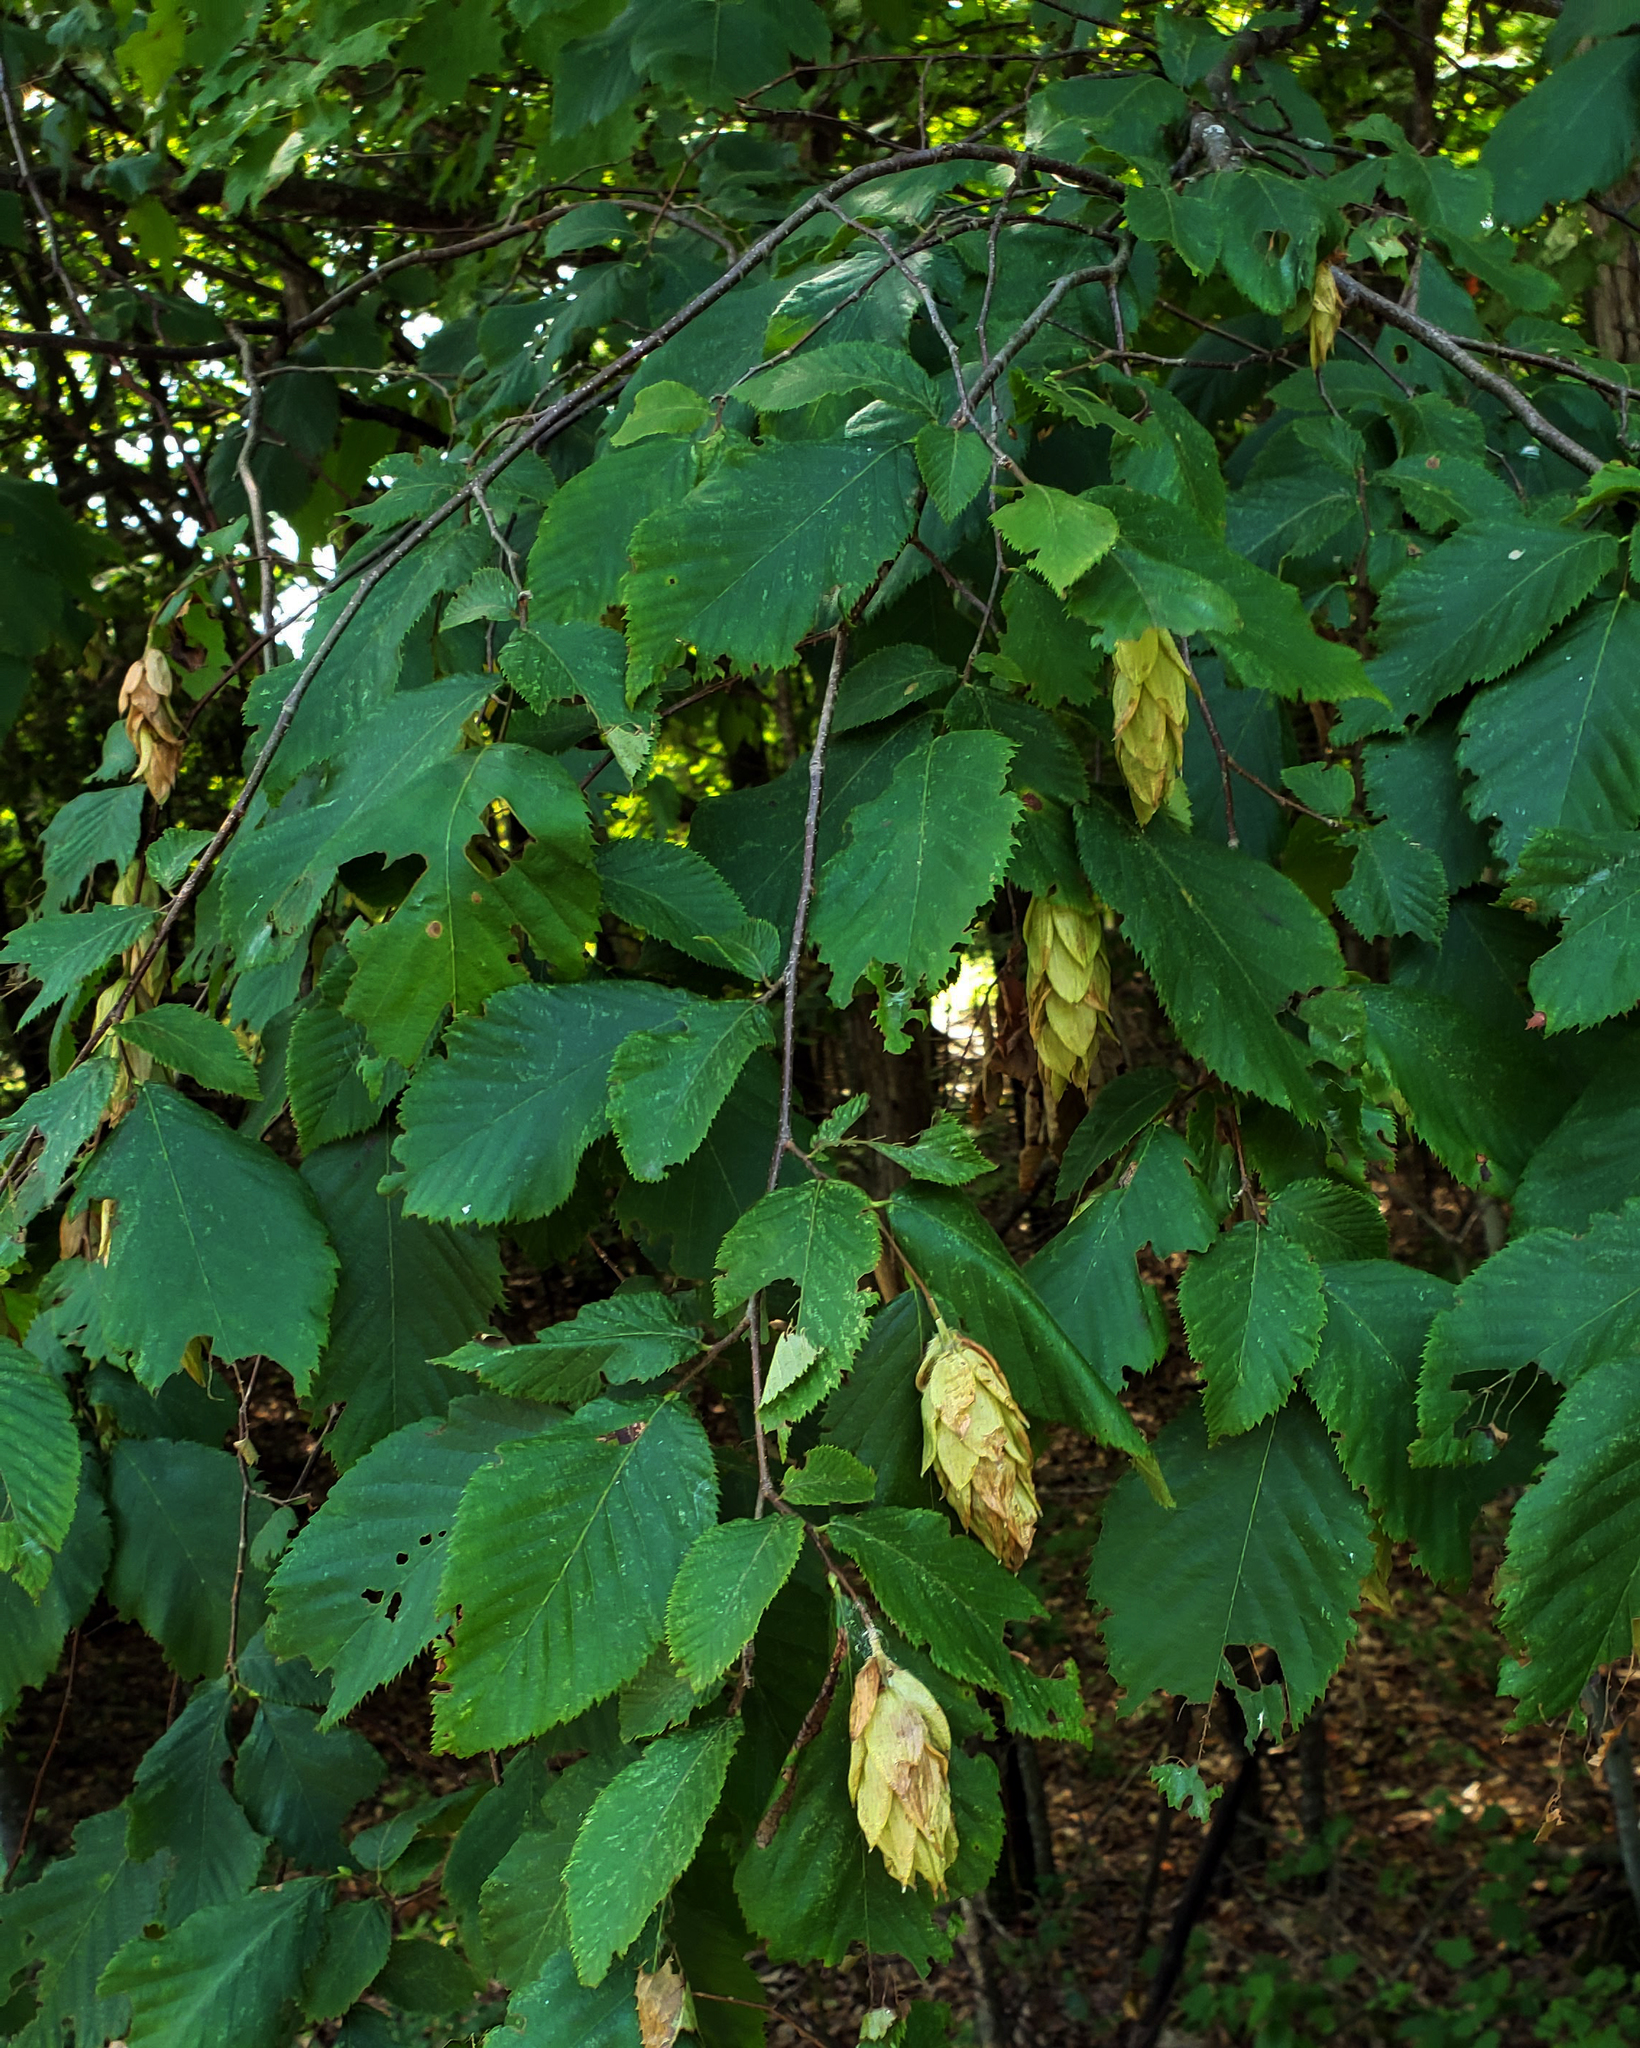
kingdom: Plantae
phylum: Tracheophyta
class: Magnoliopsida
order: Fagales
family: Betulaceae
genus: Ostrya
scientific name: Ostrya virginiana
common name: Ironwood
